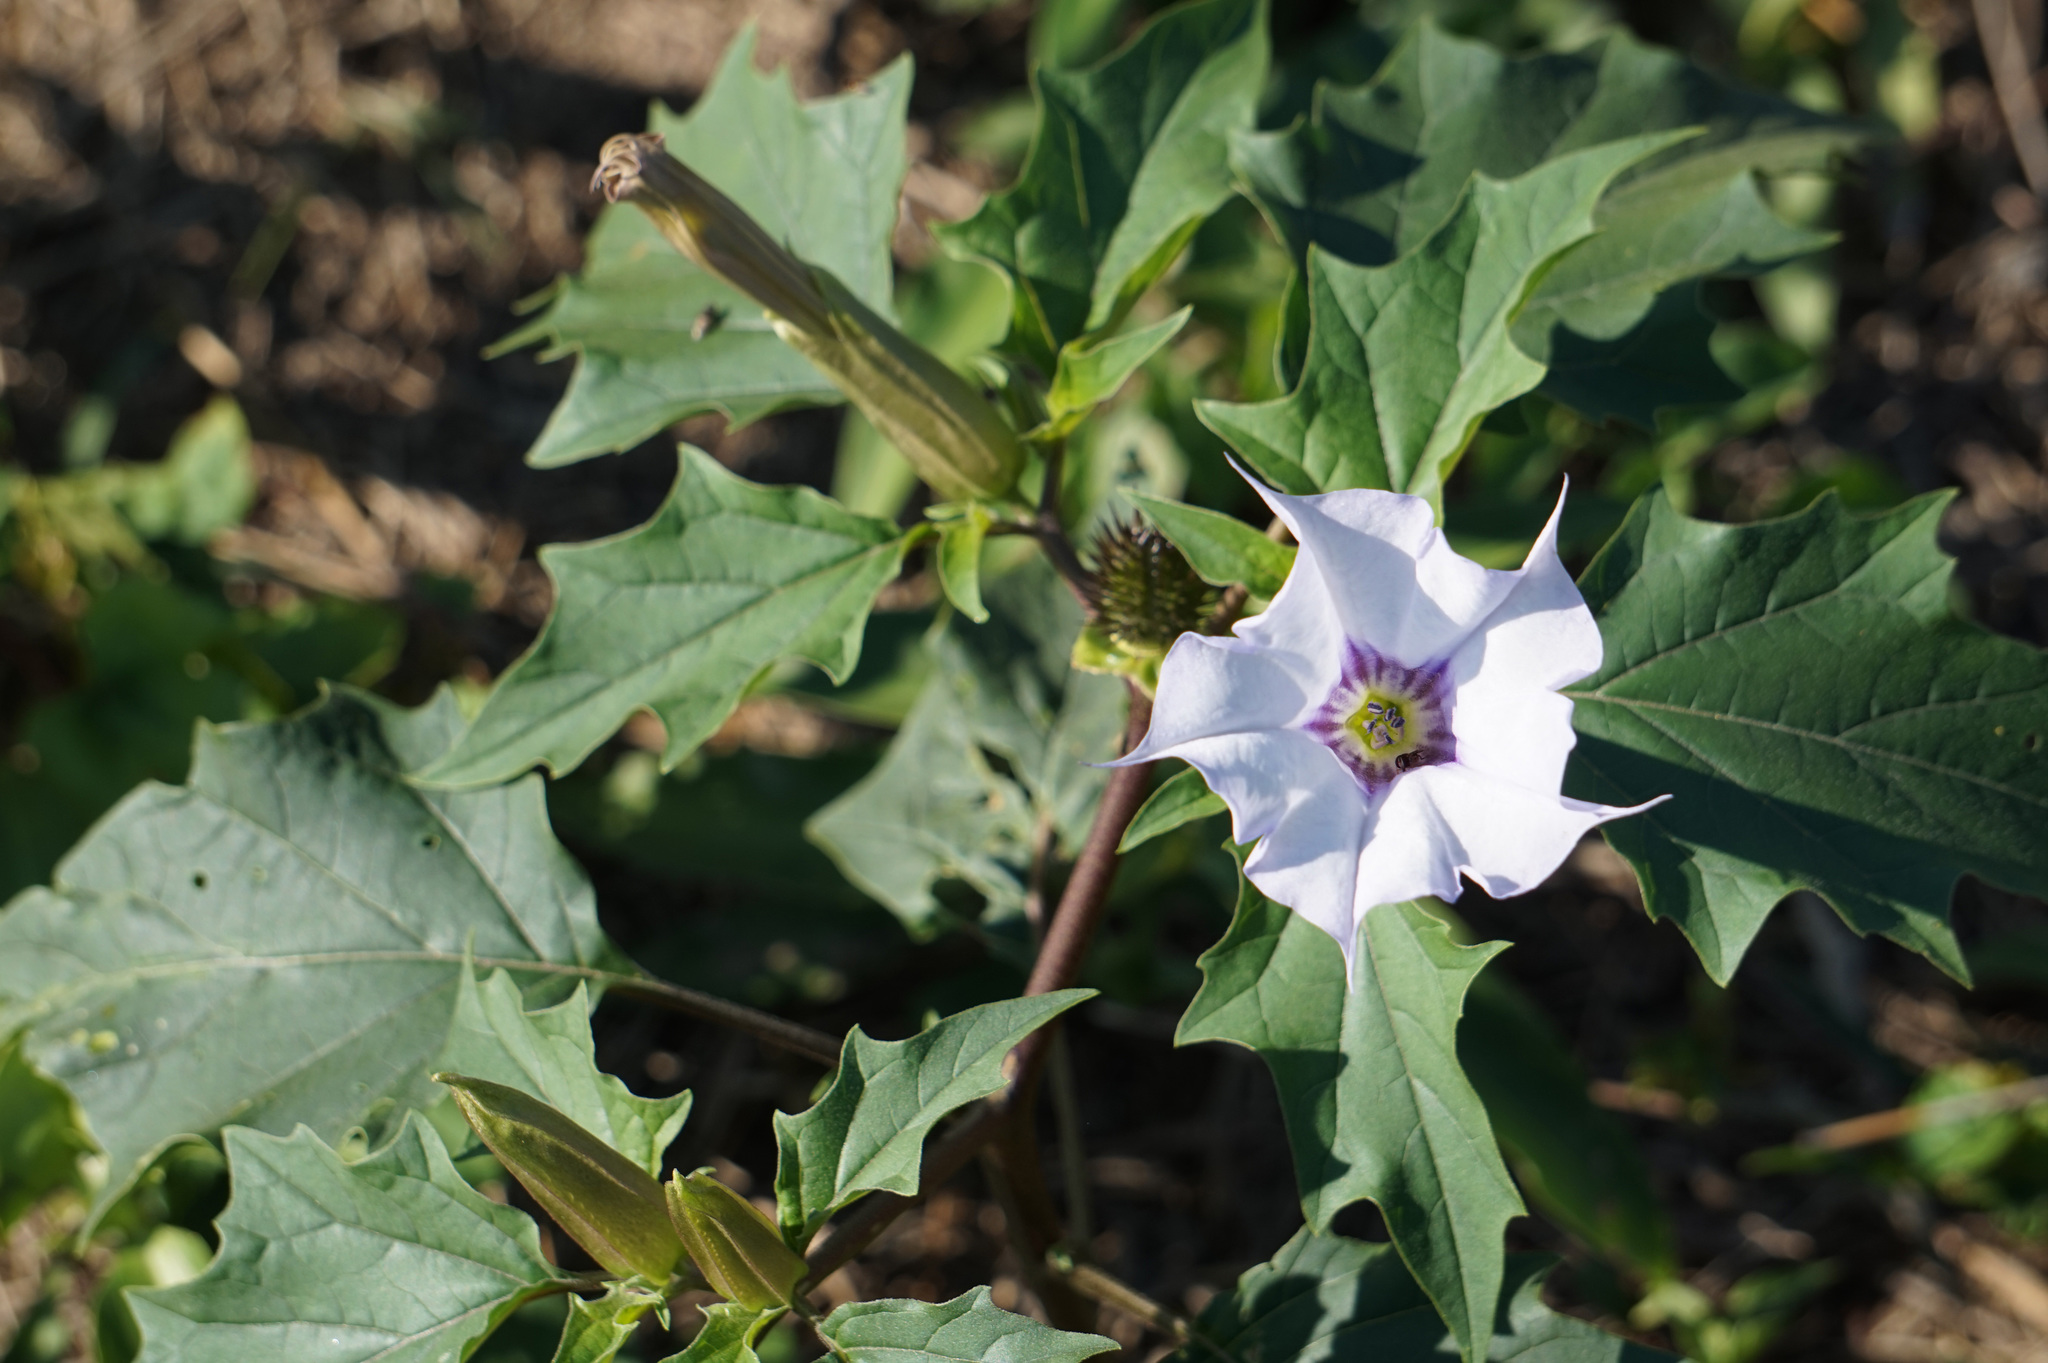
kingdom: Plantae
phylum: Tracheophyta
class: Magnoliopsida
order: Solanales
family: Solanaceae
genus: Datura
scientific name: Datura stramonium
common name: Thorn-apple
